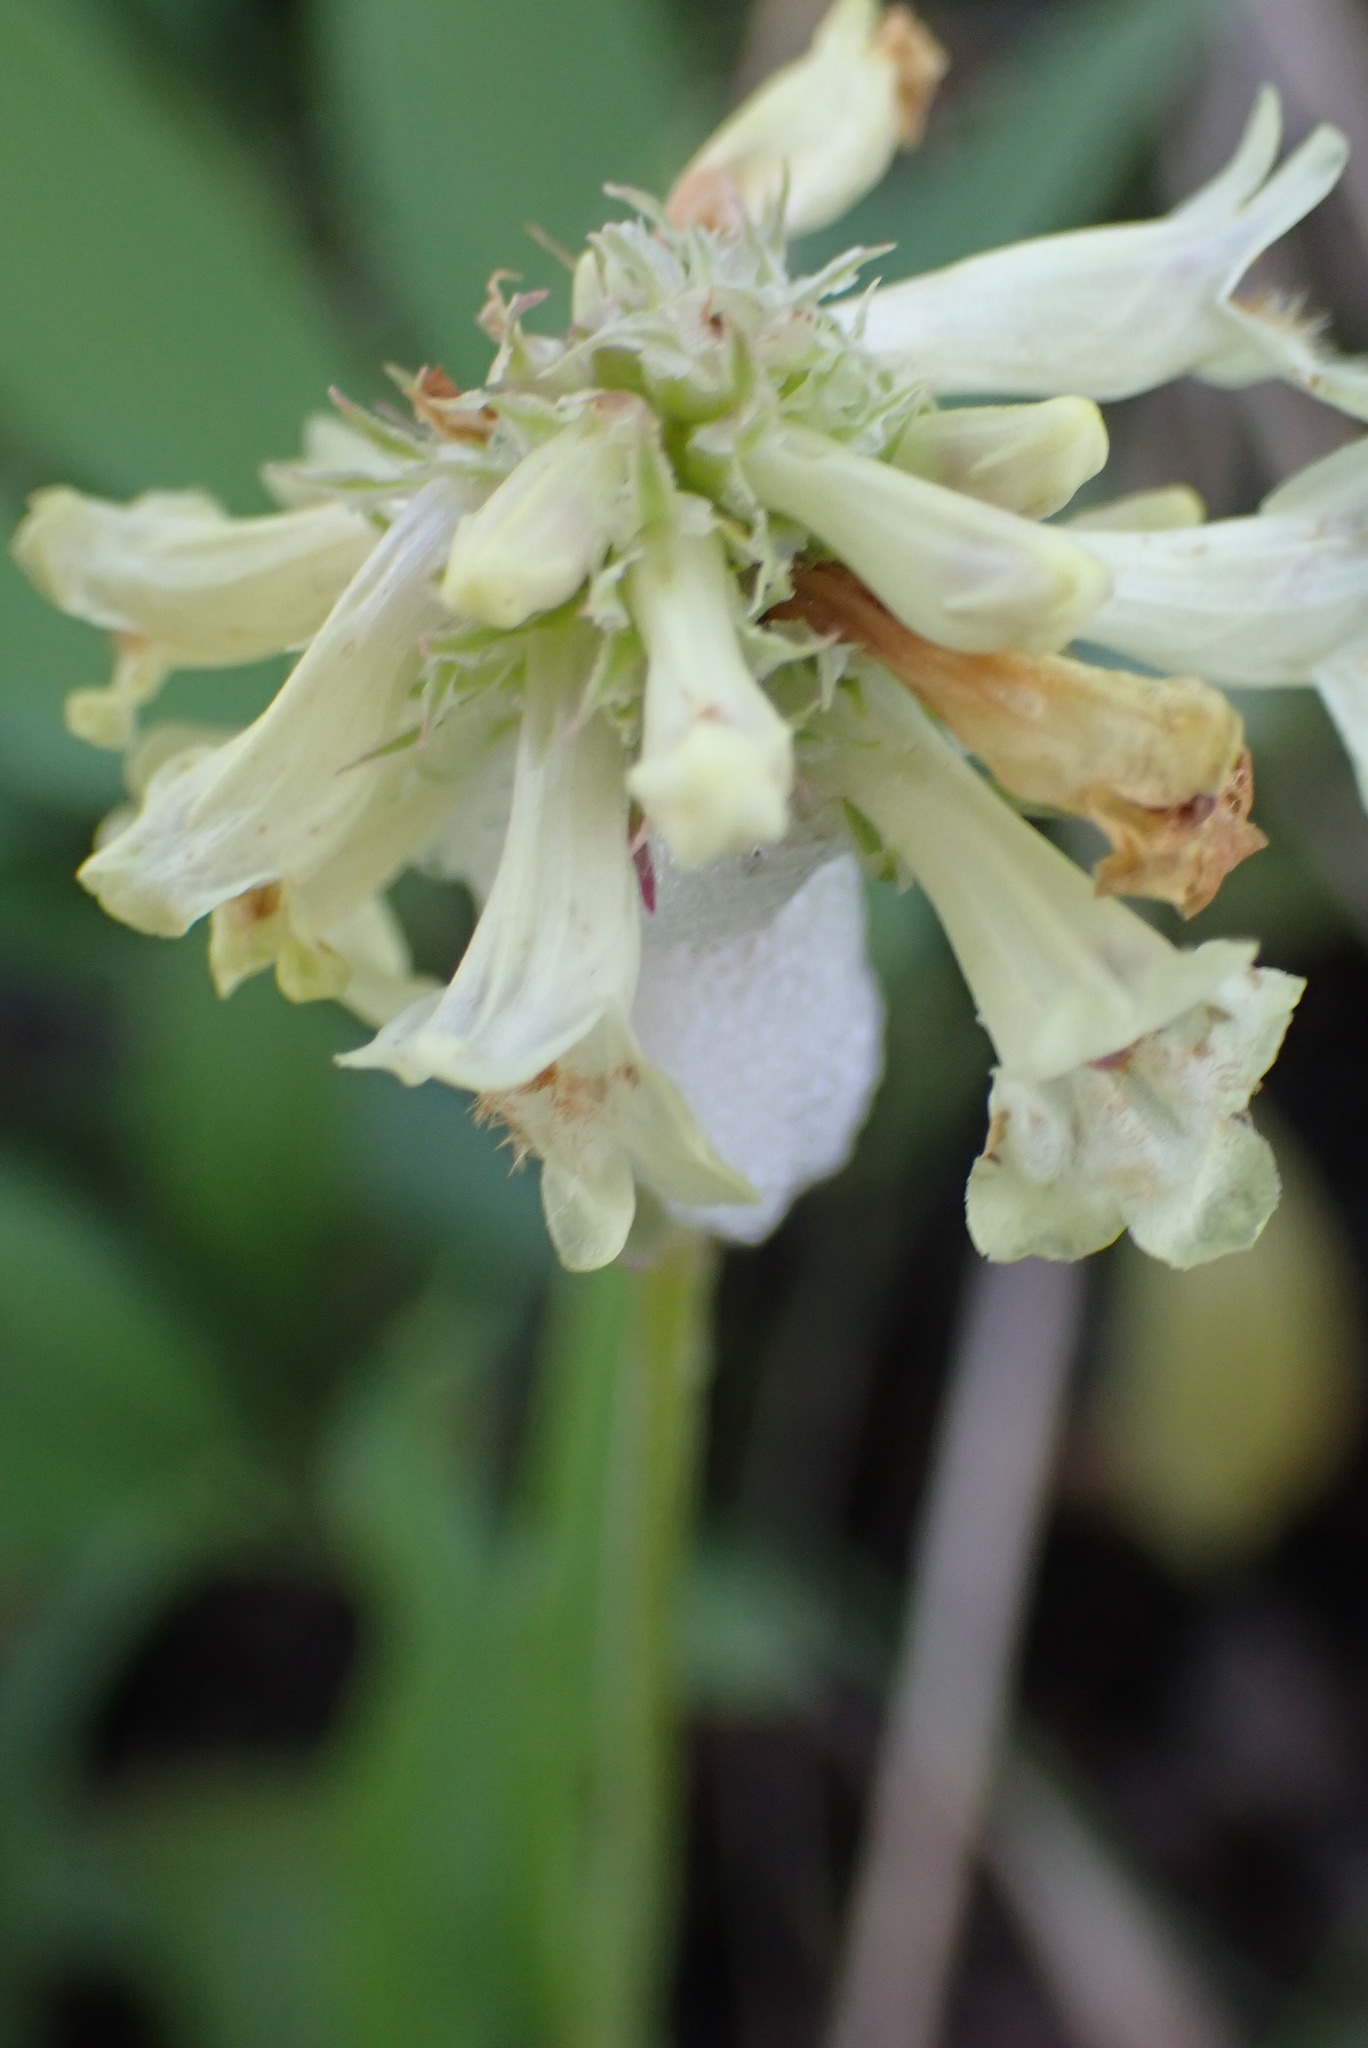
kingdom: Plantae
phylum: Tracheophyta
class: Magnoliopsida
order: Lamiales
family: Plantaginaceae
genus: Penstemon
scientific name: Penstemon confertus
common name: Lesser yellow beardtongue
